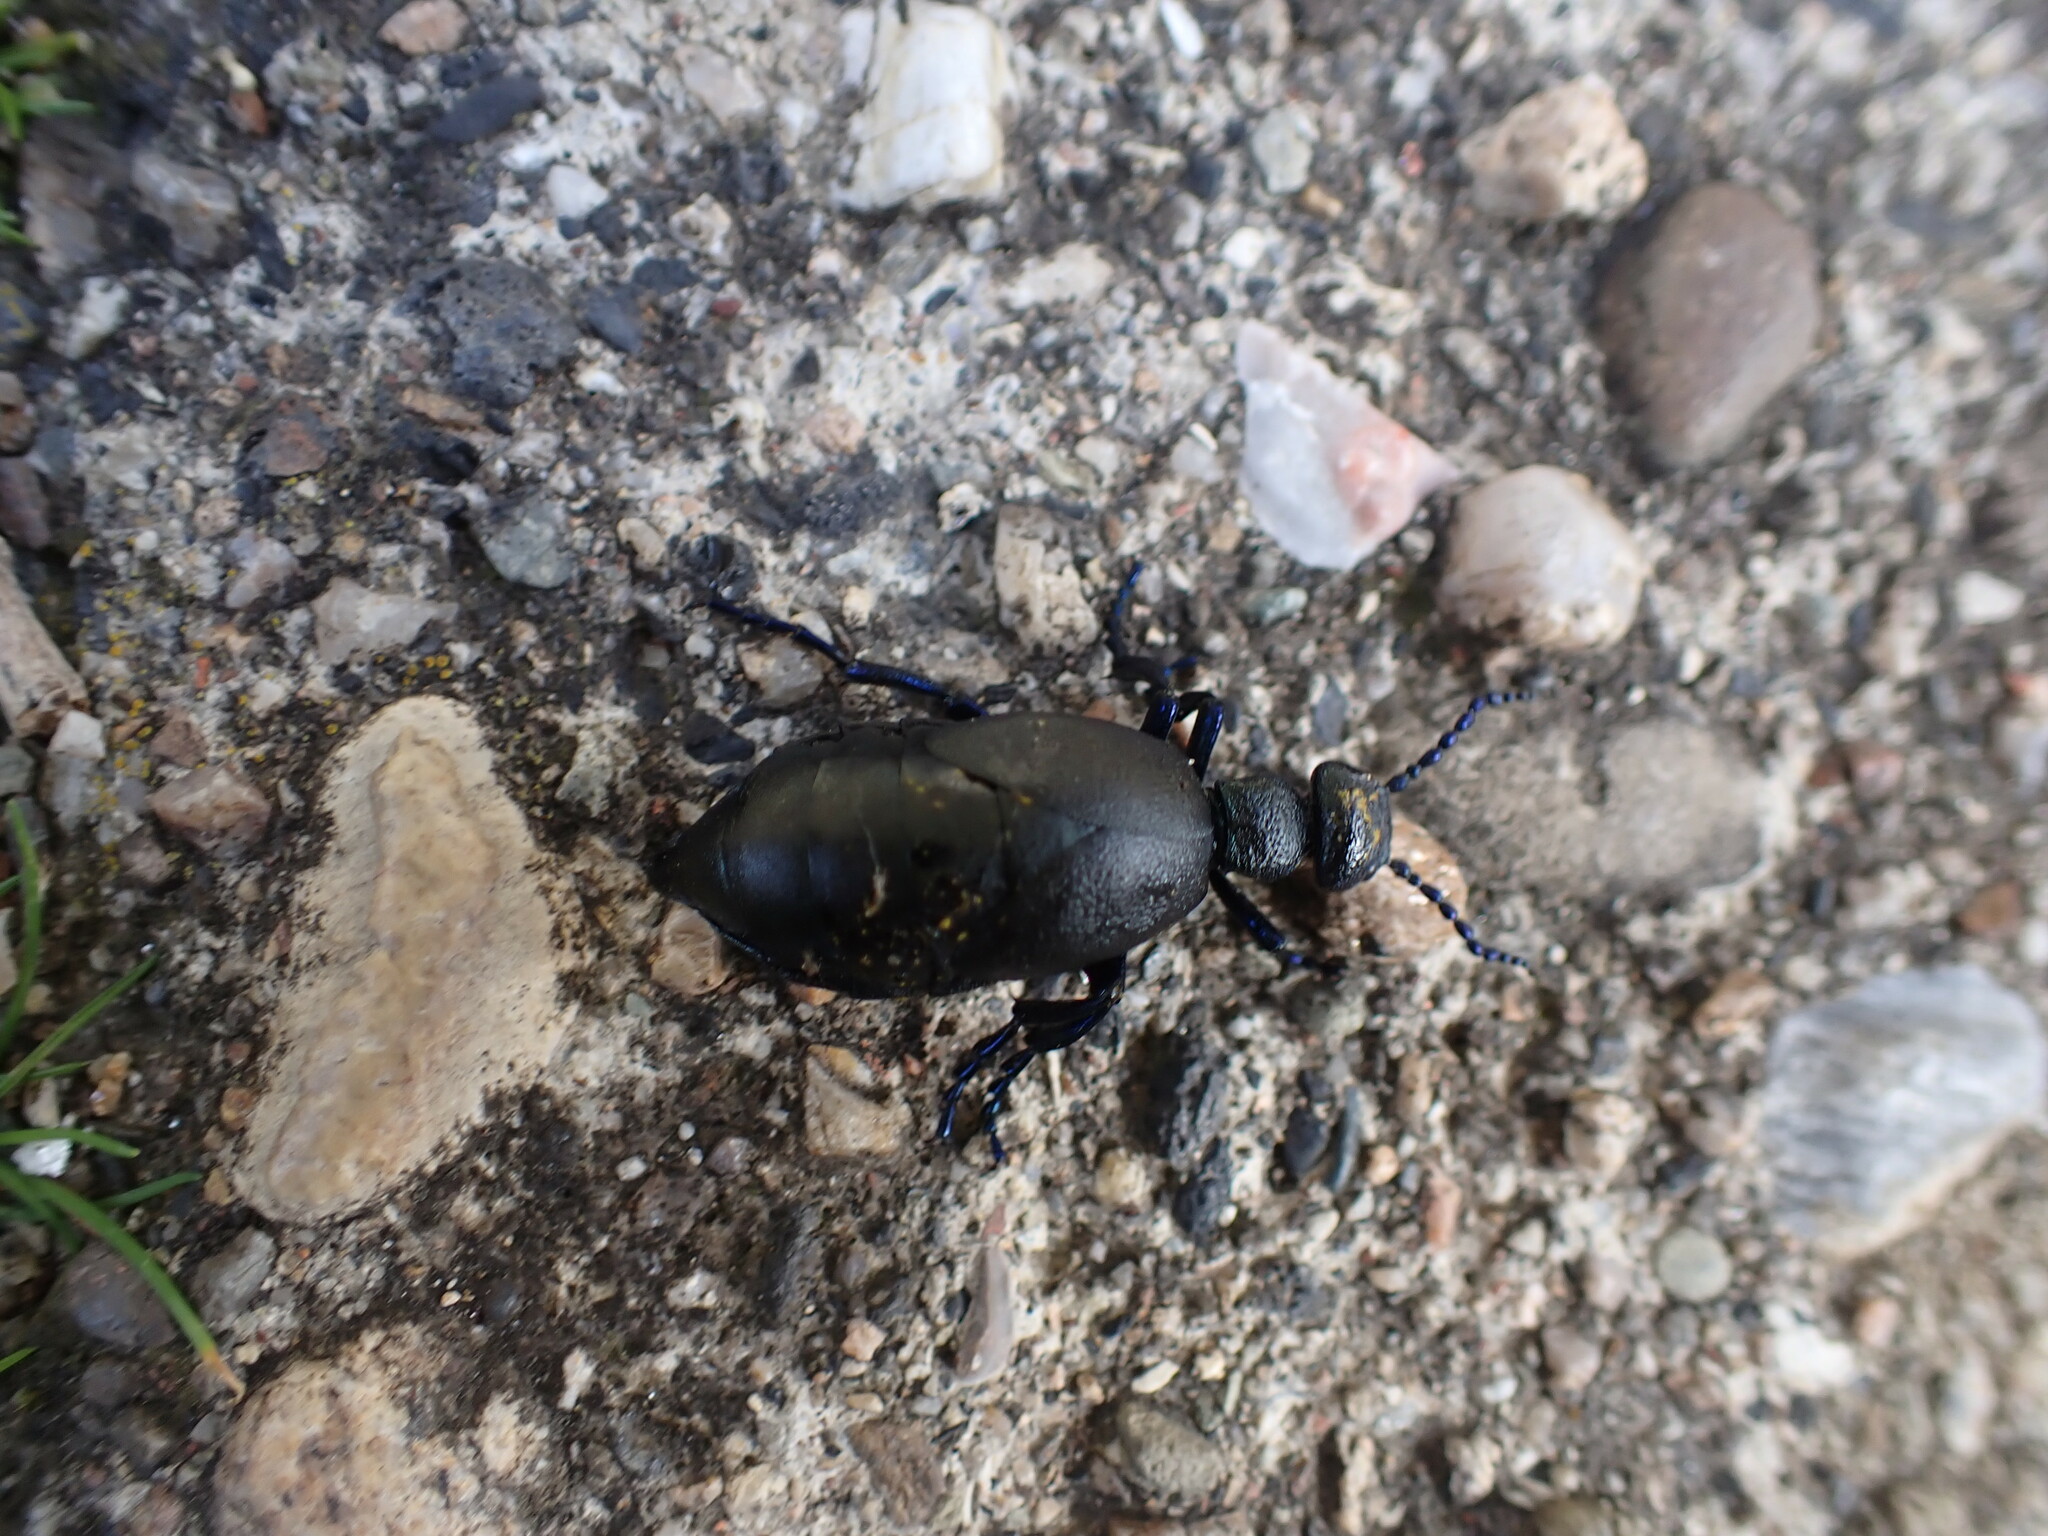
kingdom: Animalia
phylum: Arthropoda
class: Insecta
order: Coleoptera
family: Meloidae
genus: Meloe
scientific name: Meloe proscarabaeus
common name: Black oil-beetle
